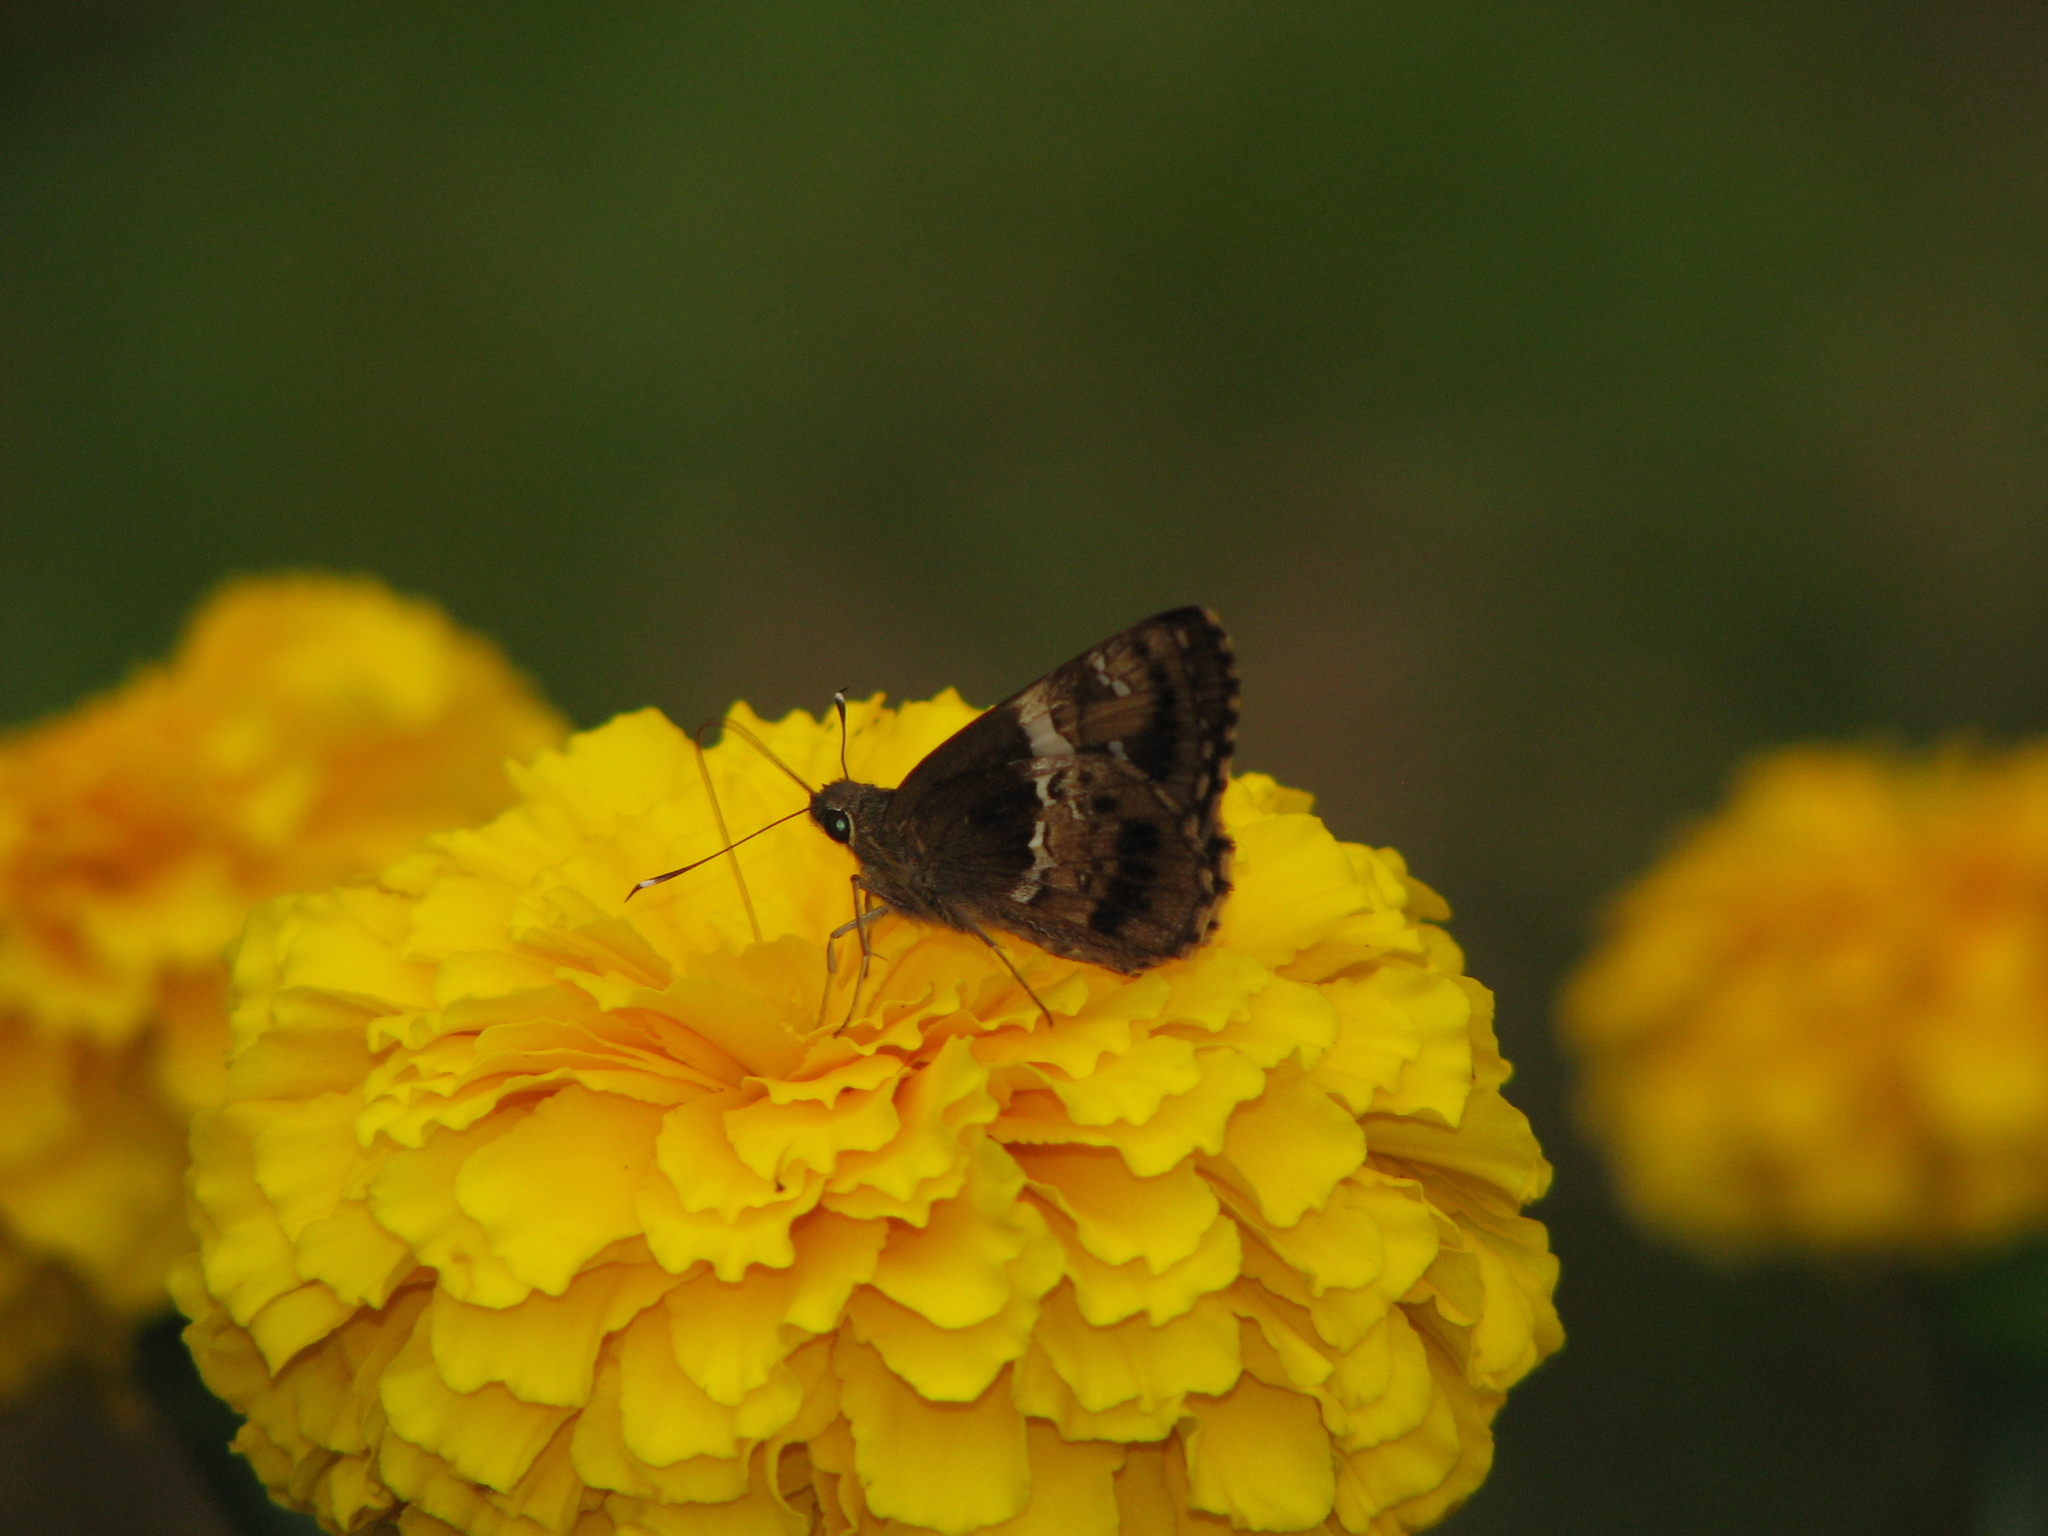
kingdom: Animalia
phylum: Arthropoda
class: Insecta
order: Lepidoptera
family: Hesperiidae
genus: Hyarotis
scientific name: Hyarotis adrastus
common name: Tree flitter
